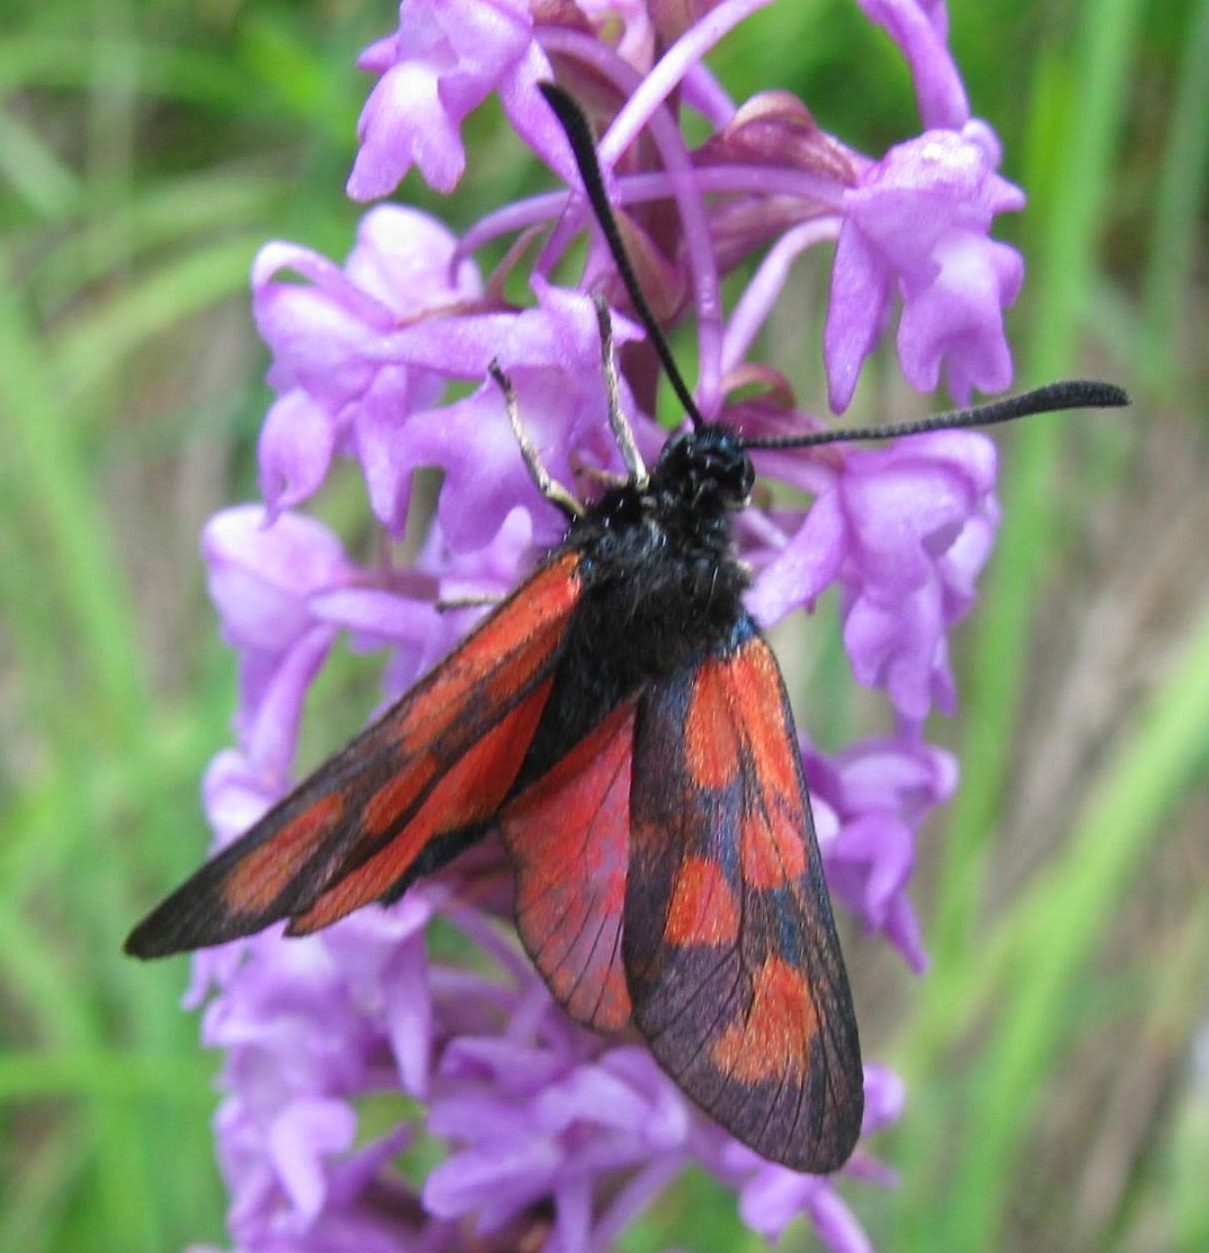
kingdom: Animalia
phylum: Arthropoda
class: Insecta
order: Lepidoptera
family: Zygaenidae
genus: Zygaena
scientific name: Zygaena loti
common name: Slender scotch burnet
